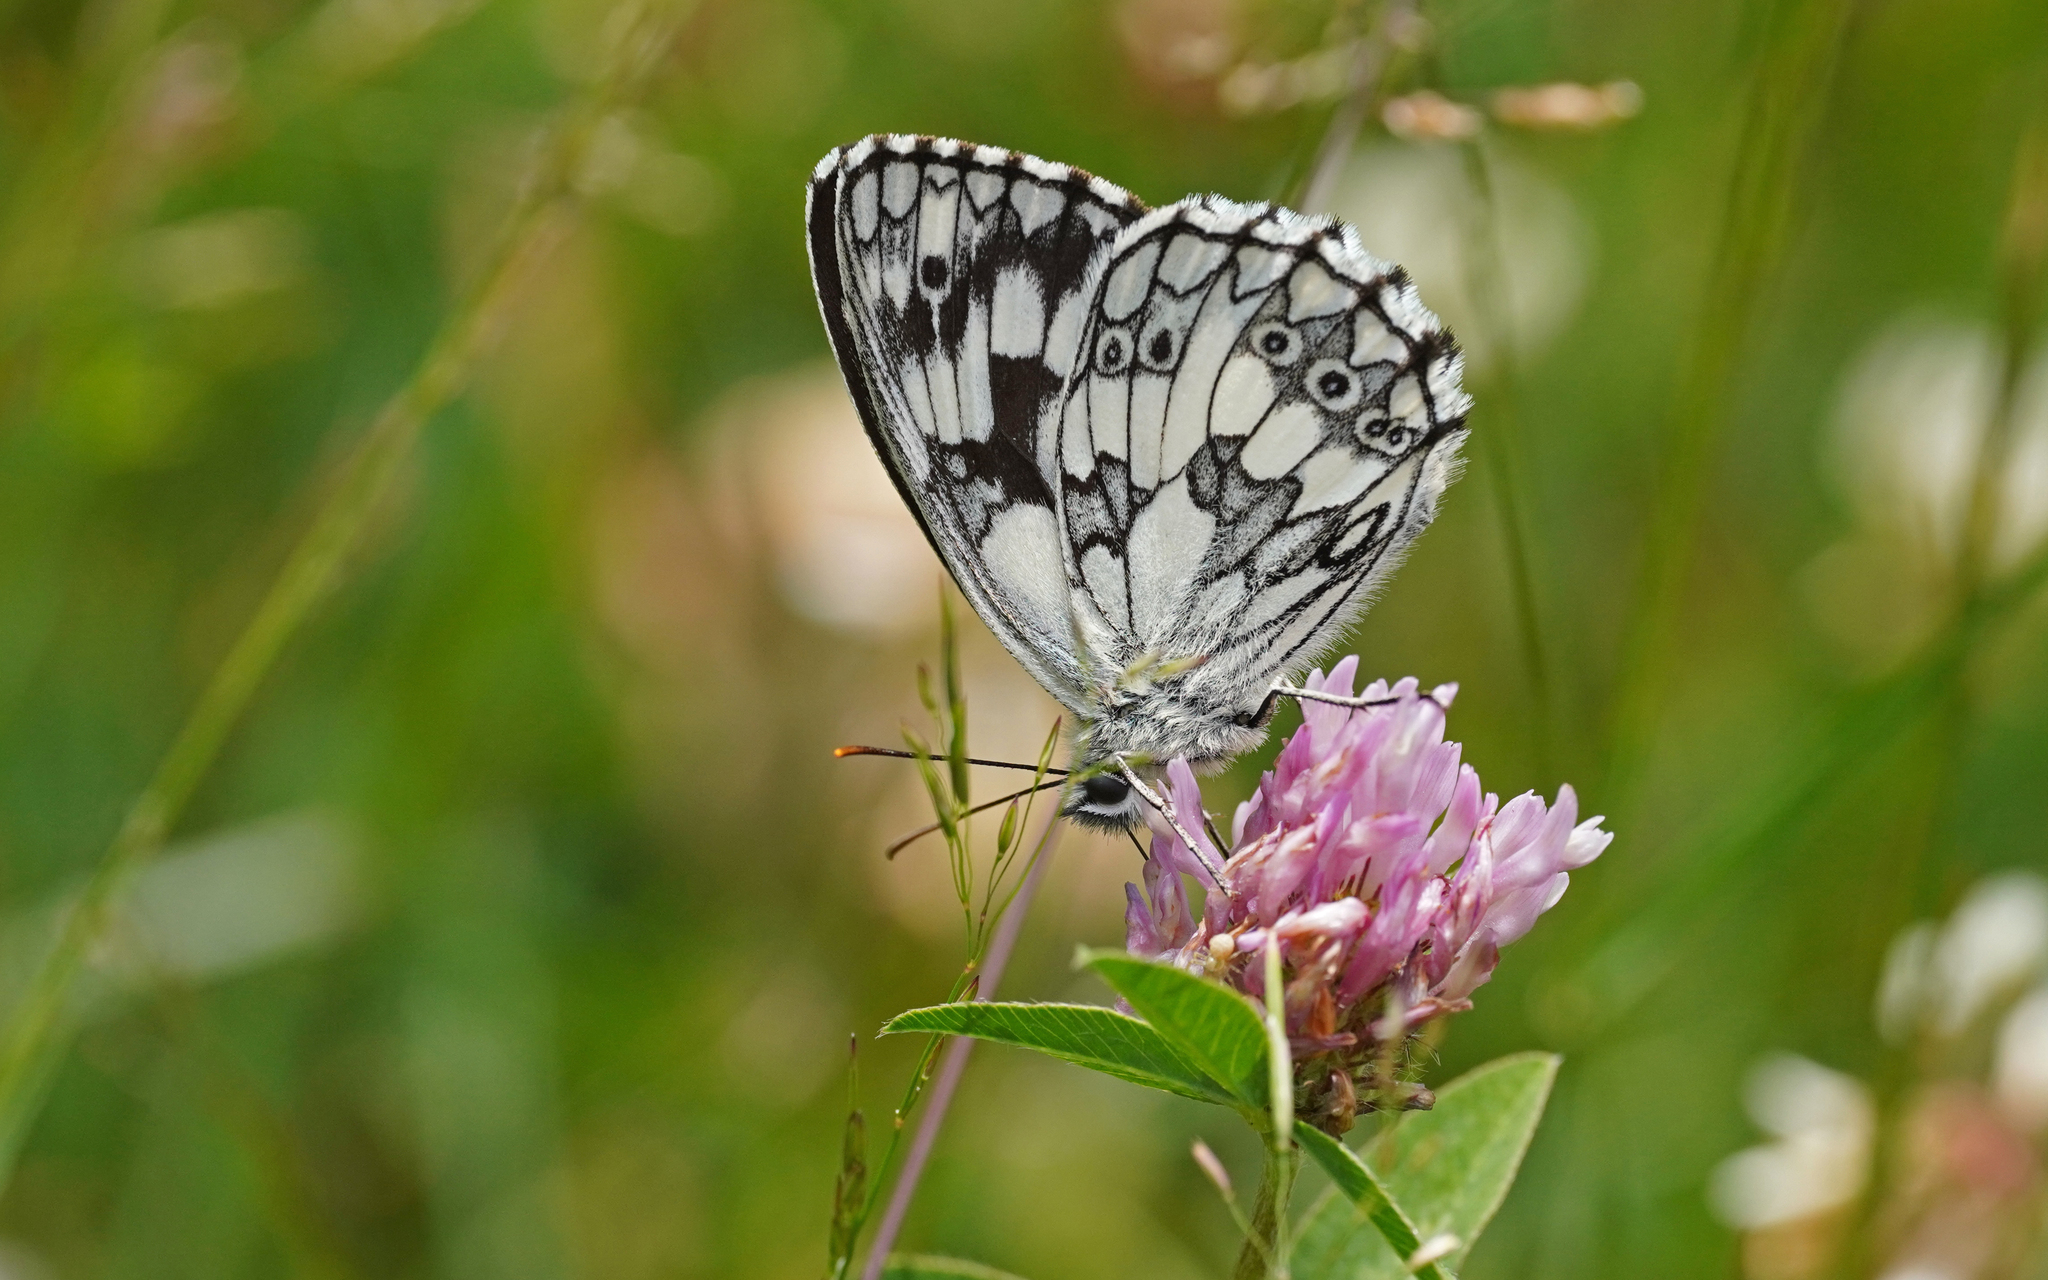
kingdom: Animalia
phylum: Arthropoda
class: Insecta
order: Lepidoptera
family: Nymphalidae
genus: Melanargia
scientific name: Melanargia galathea
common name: Marbled white
